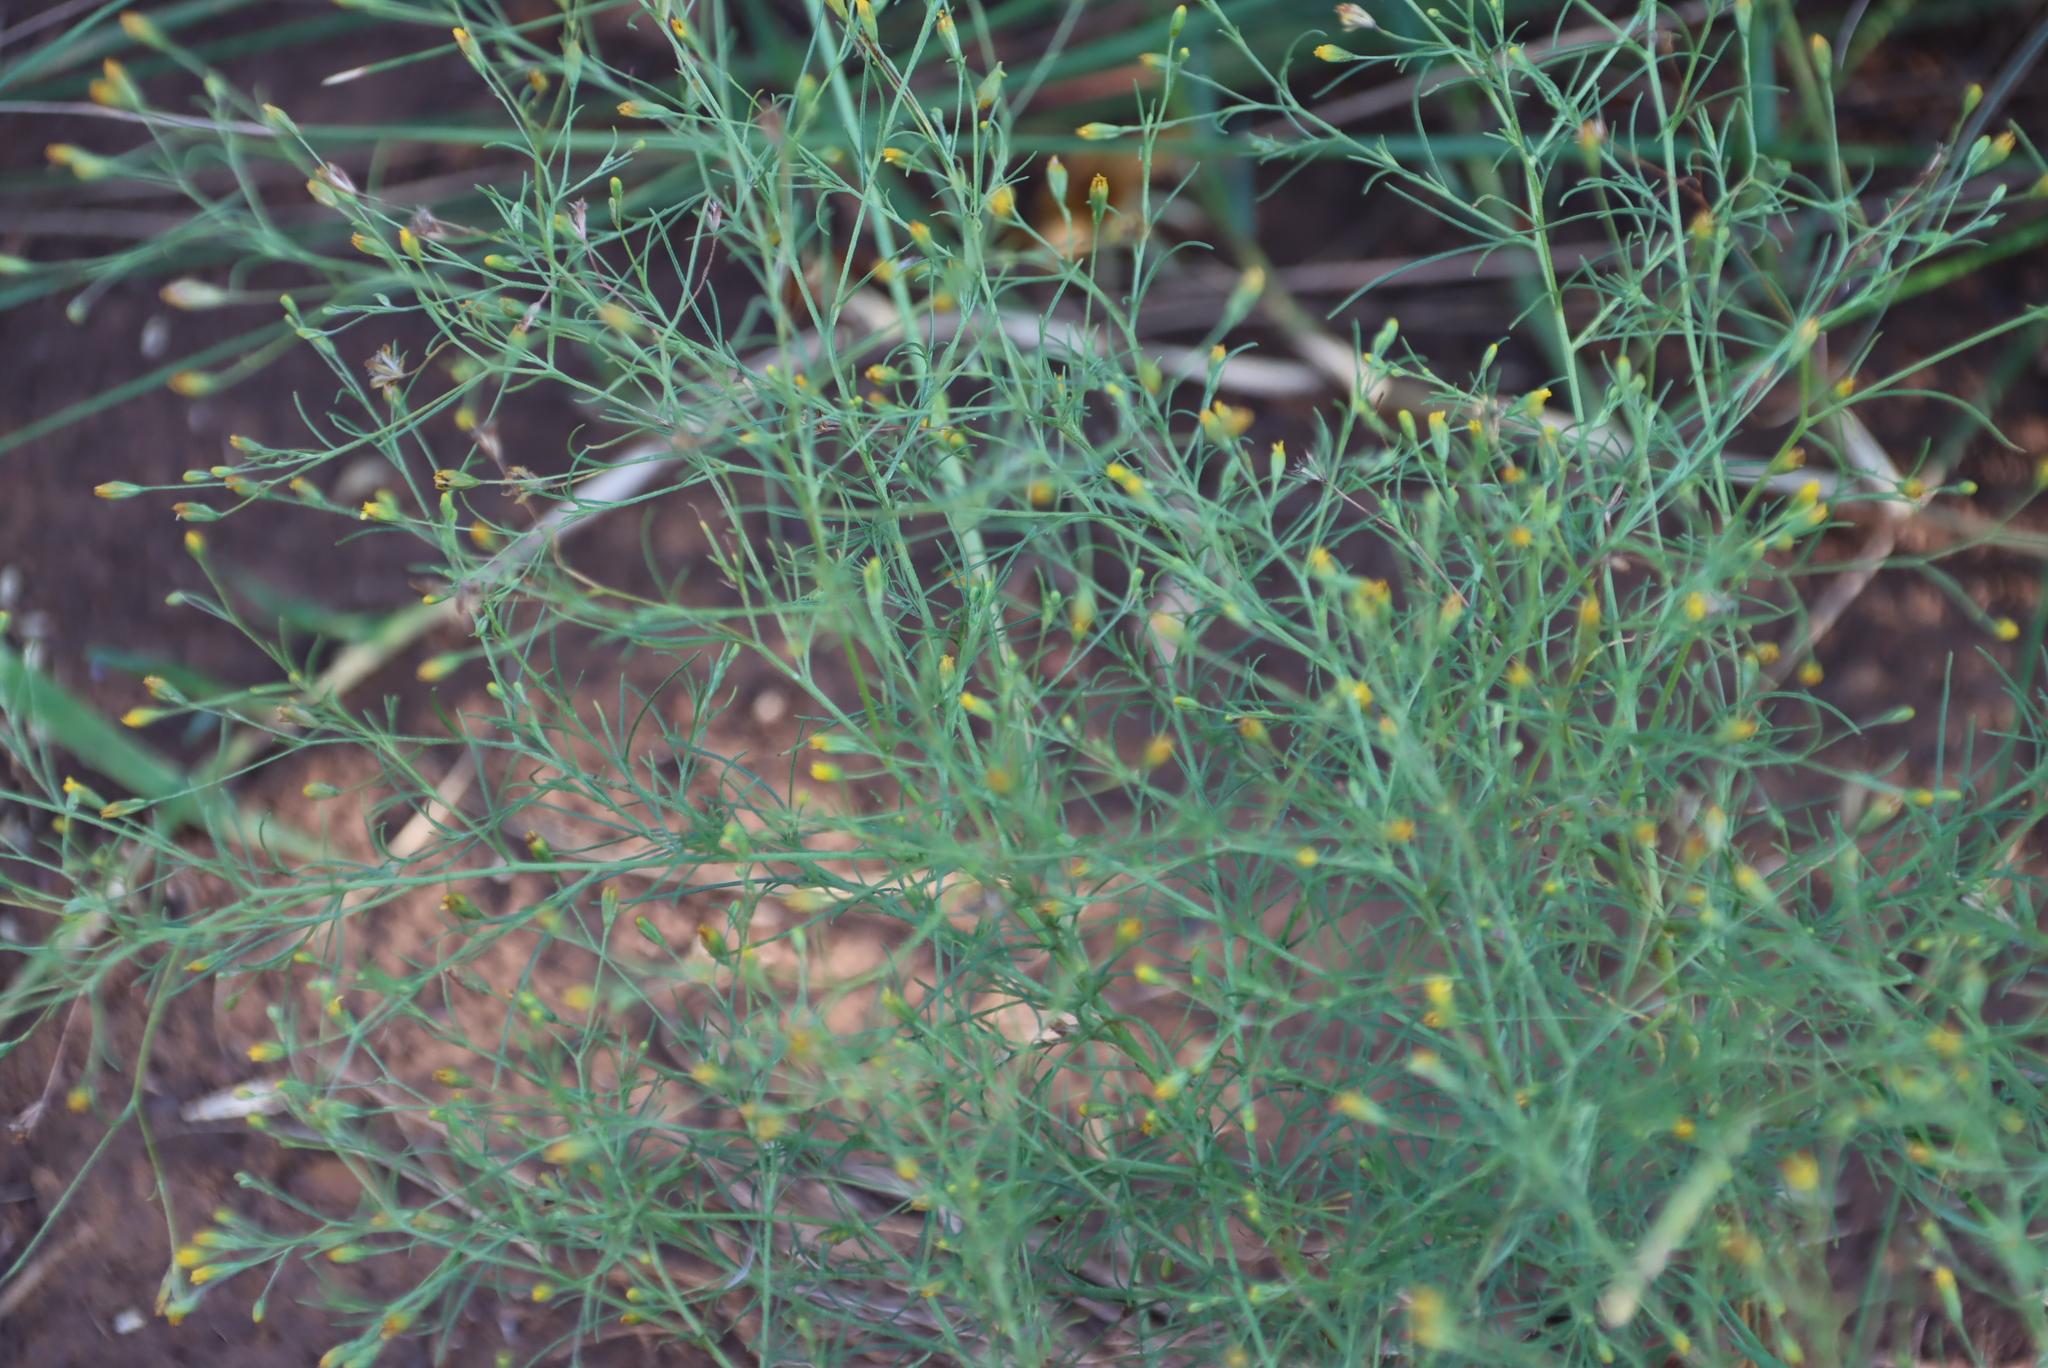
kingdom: Plantae
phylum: Tracheophyta
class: Magnoliopsida
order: Asterales
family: Asteraceae
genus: Schkuhria
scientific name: Schkuhria pinnata
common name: Dwarf marigold
